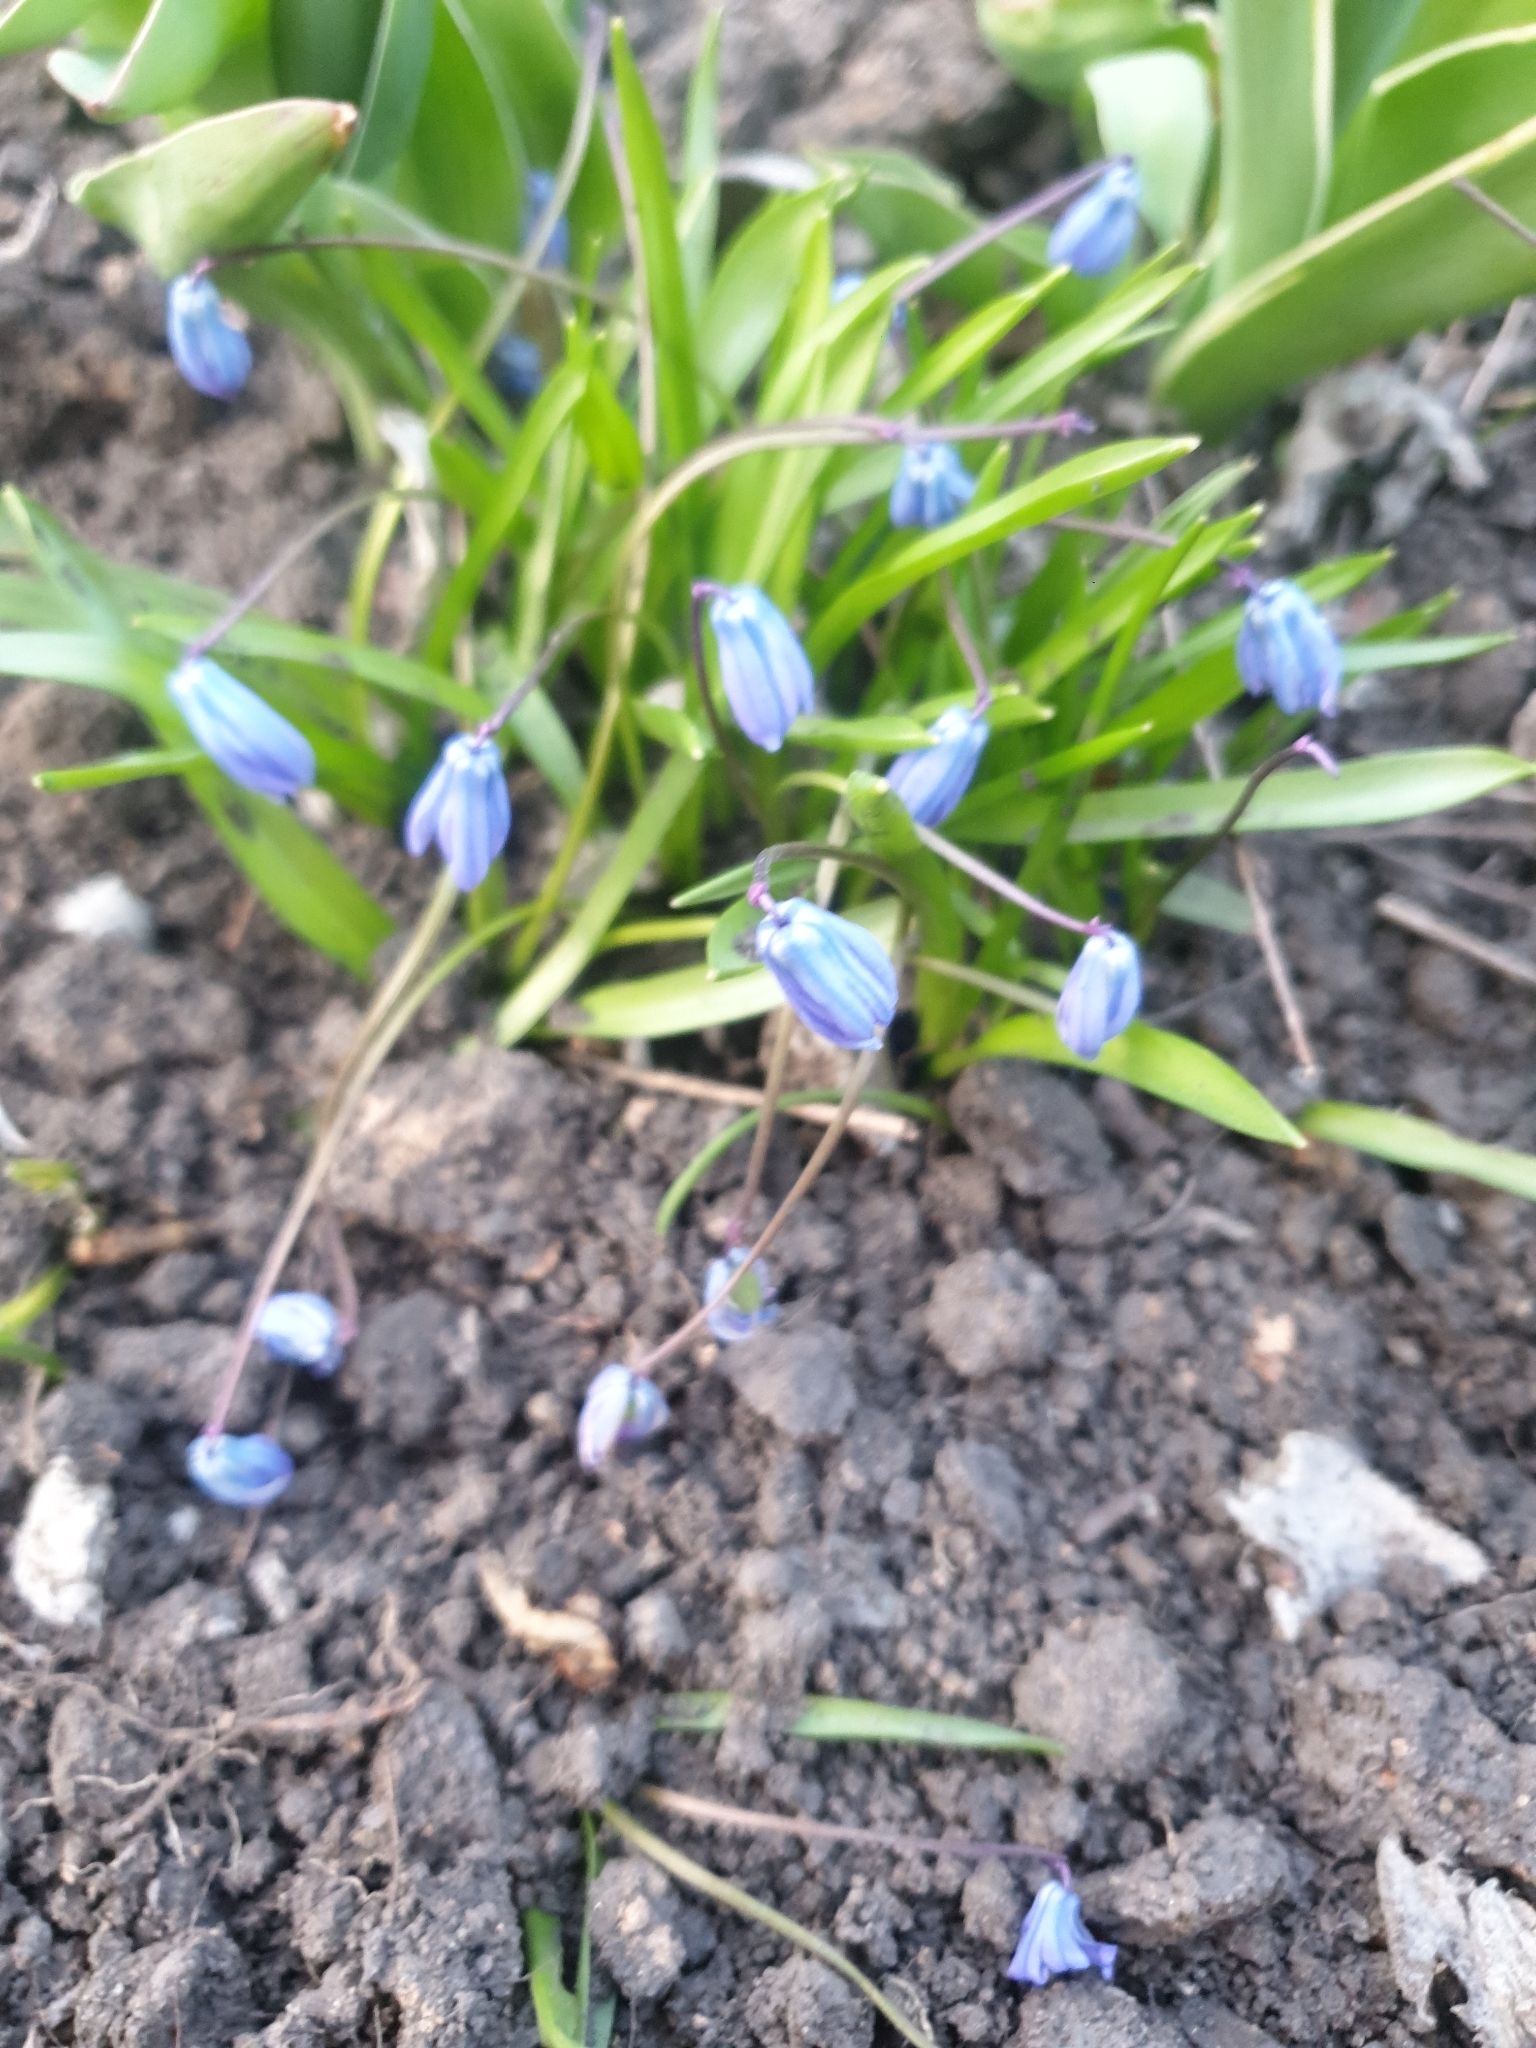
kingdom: Plantae
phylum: Tracheophyta
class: Liliopsida
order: Asparagales
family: Asparagaceae
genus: Scilla
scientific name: Scilla siberica
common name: Siberian squill
